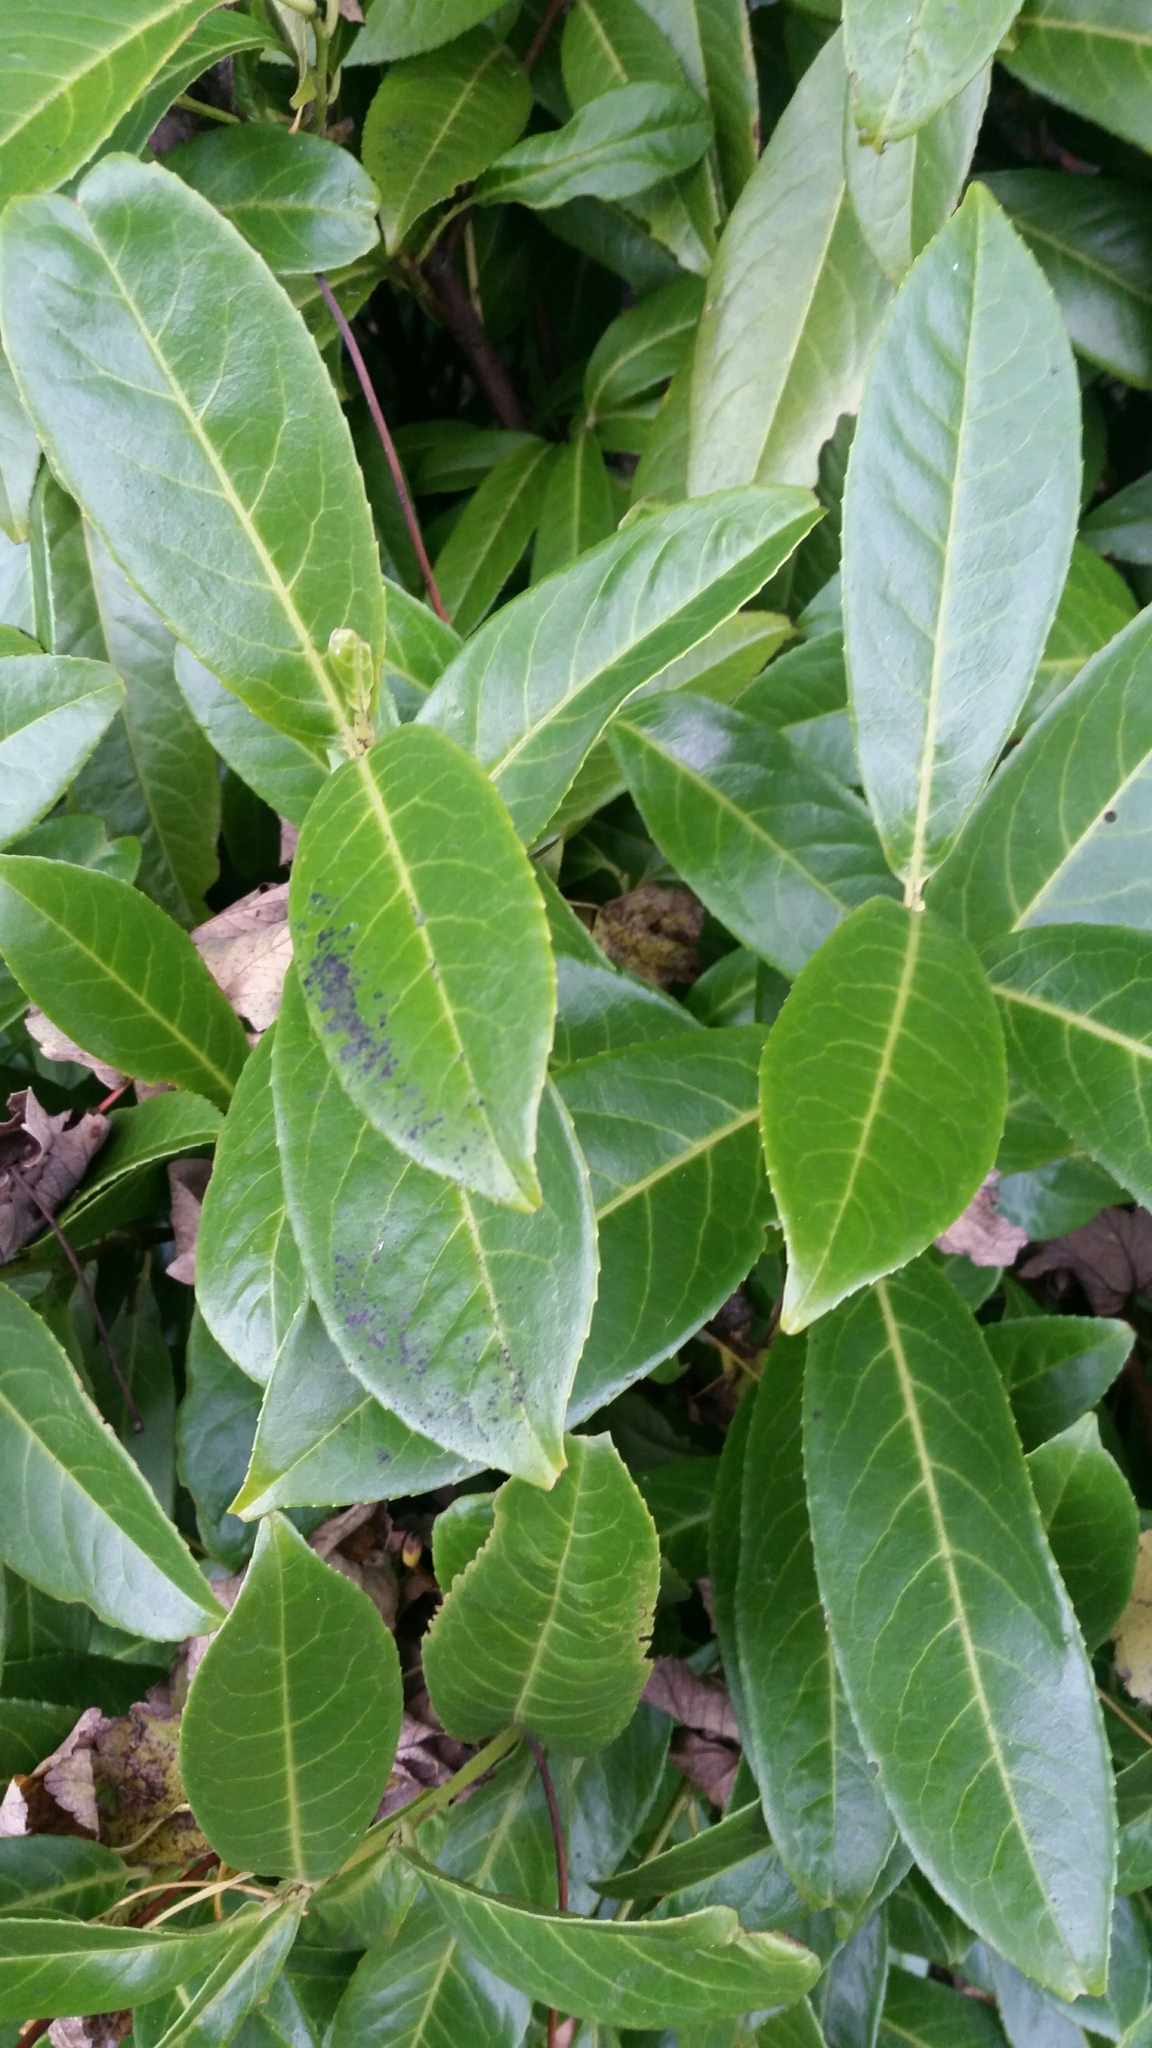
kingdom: Plantae
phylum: Tracheophyta
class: Magnoliopsida
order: Rosales
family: Rosaceae
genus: Prunus
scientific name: Prunus laurocerasus
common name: Cherry laurel
